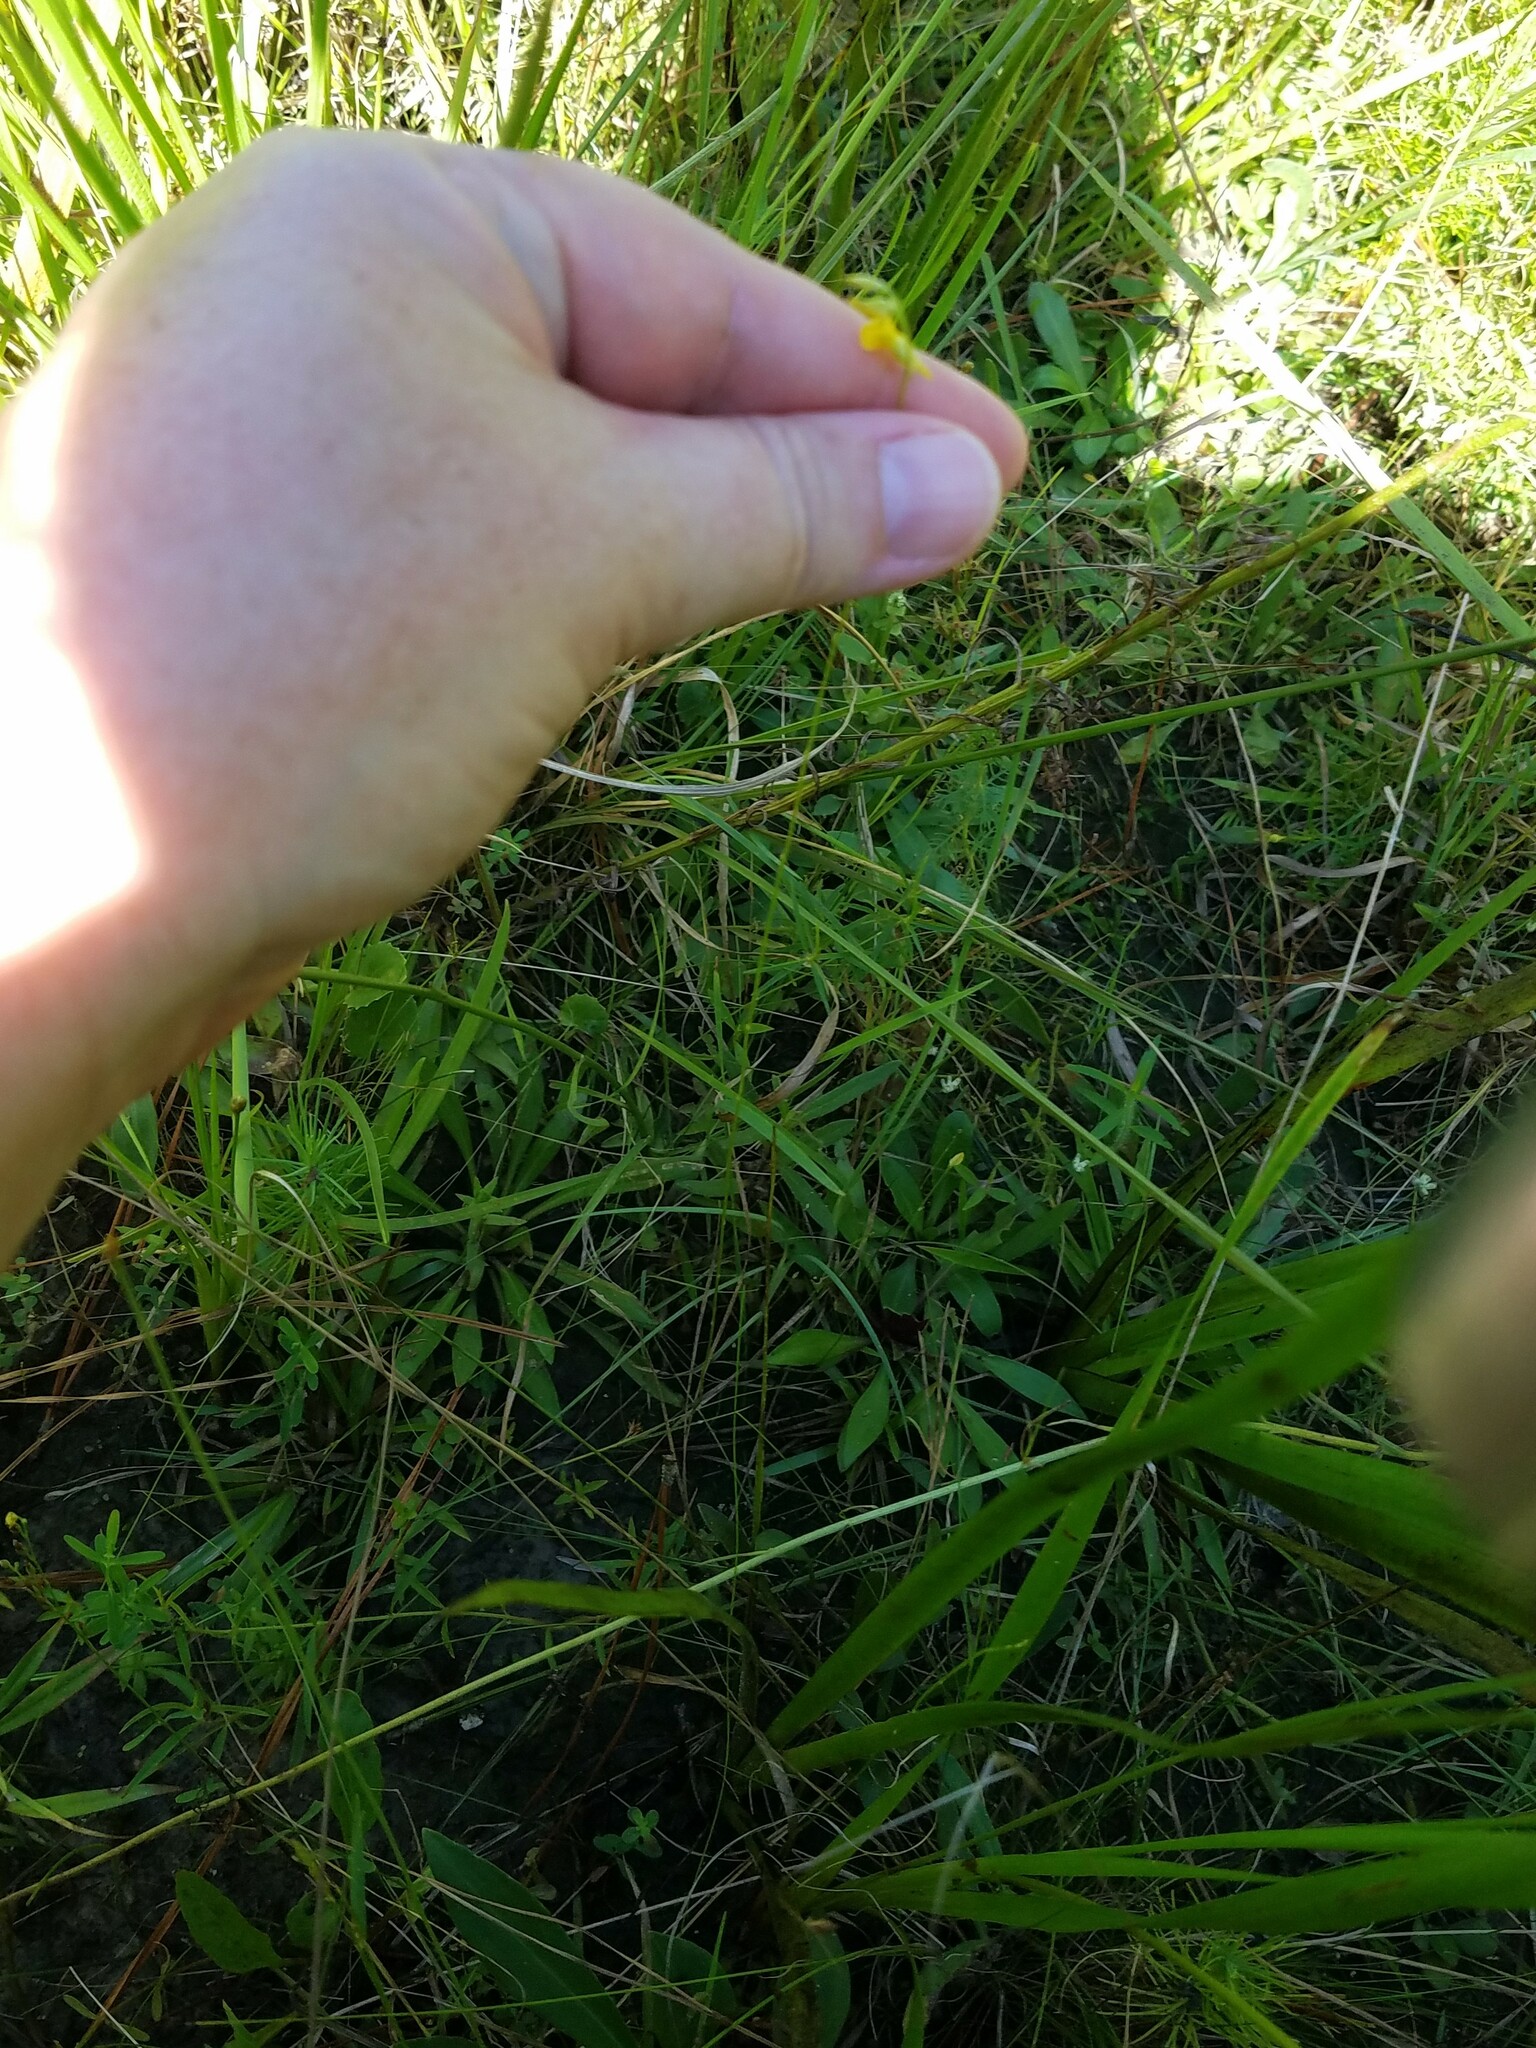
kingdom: Plantae
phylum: Tracheophyta
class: Magnoliopsida
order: Lamiales
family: Lentibulariaceae
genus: Utricularia
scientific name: Utricularia juncea
